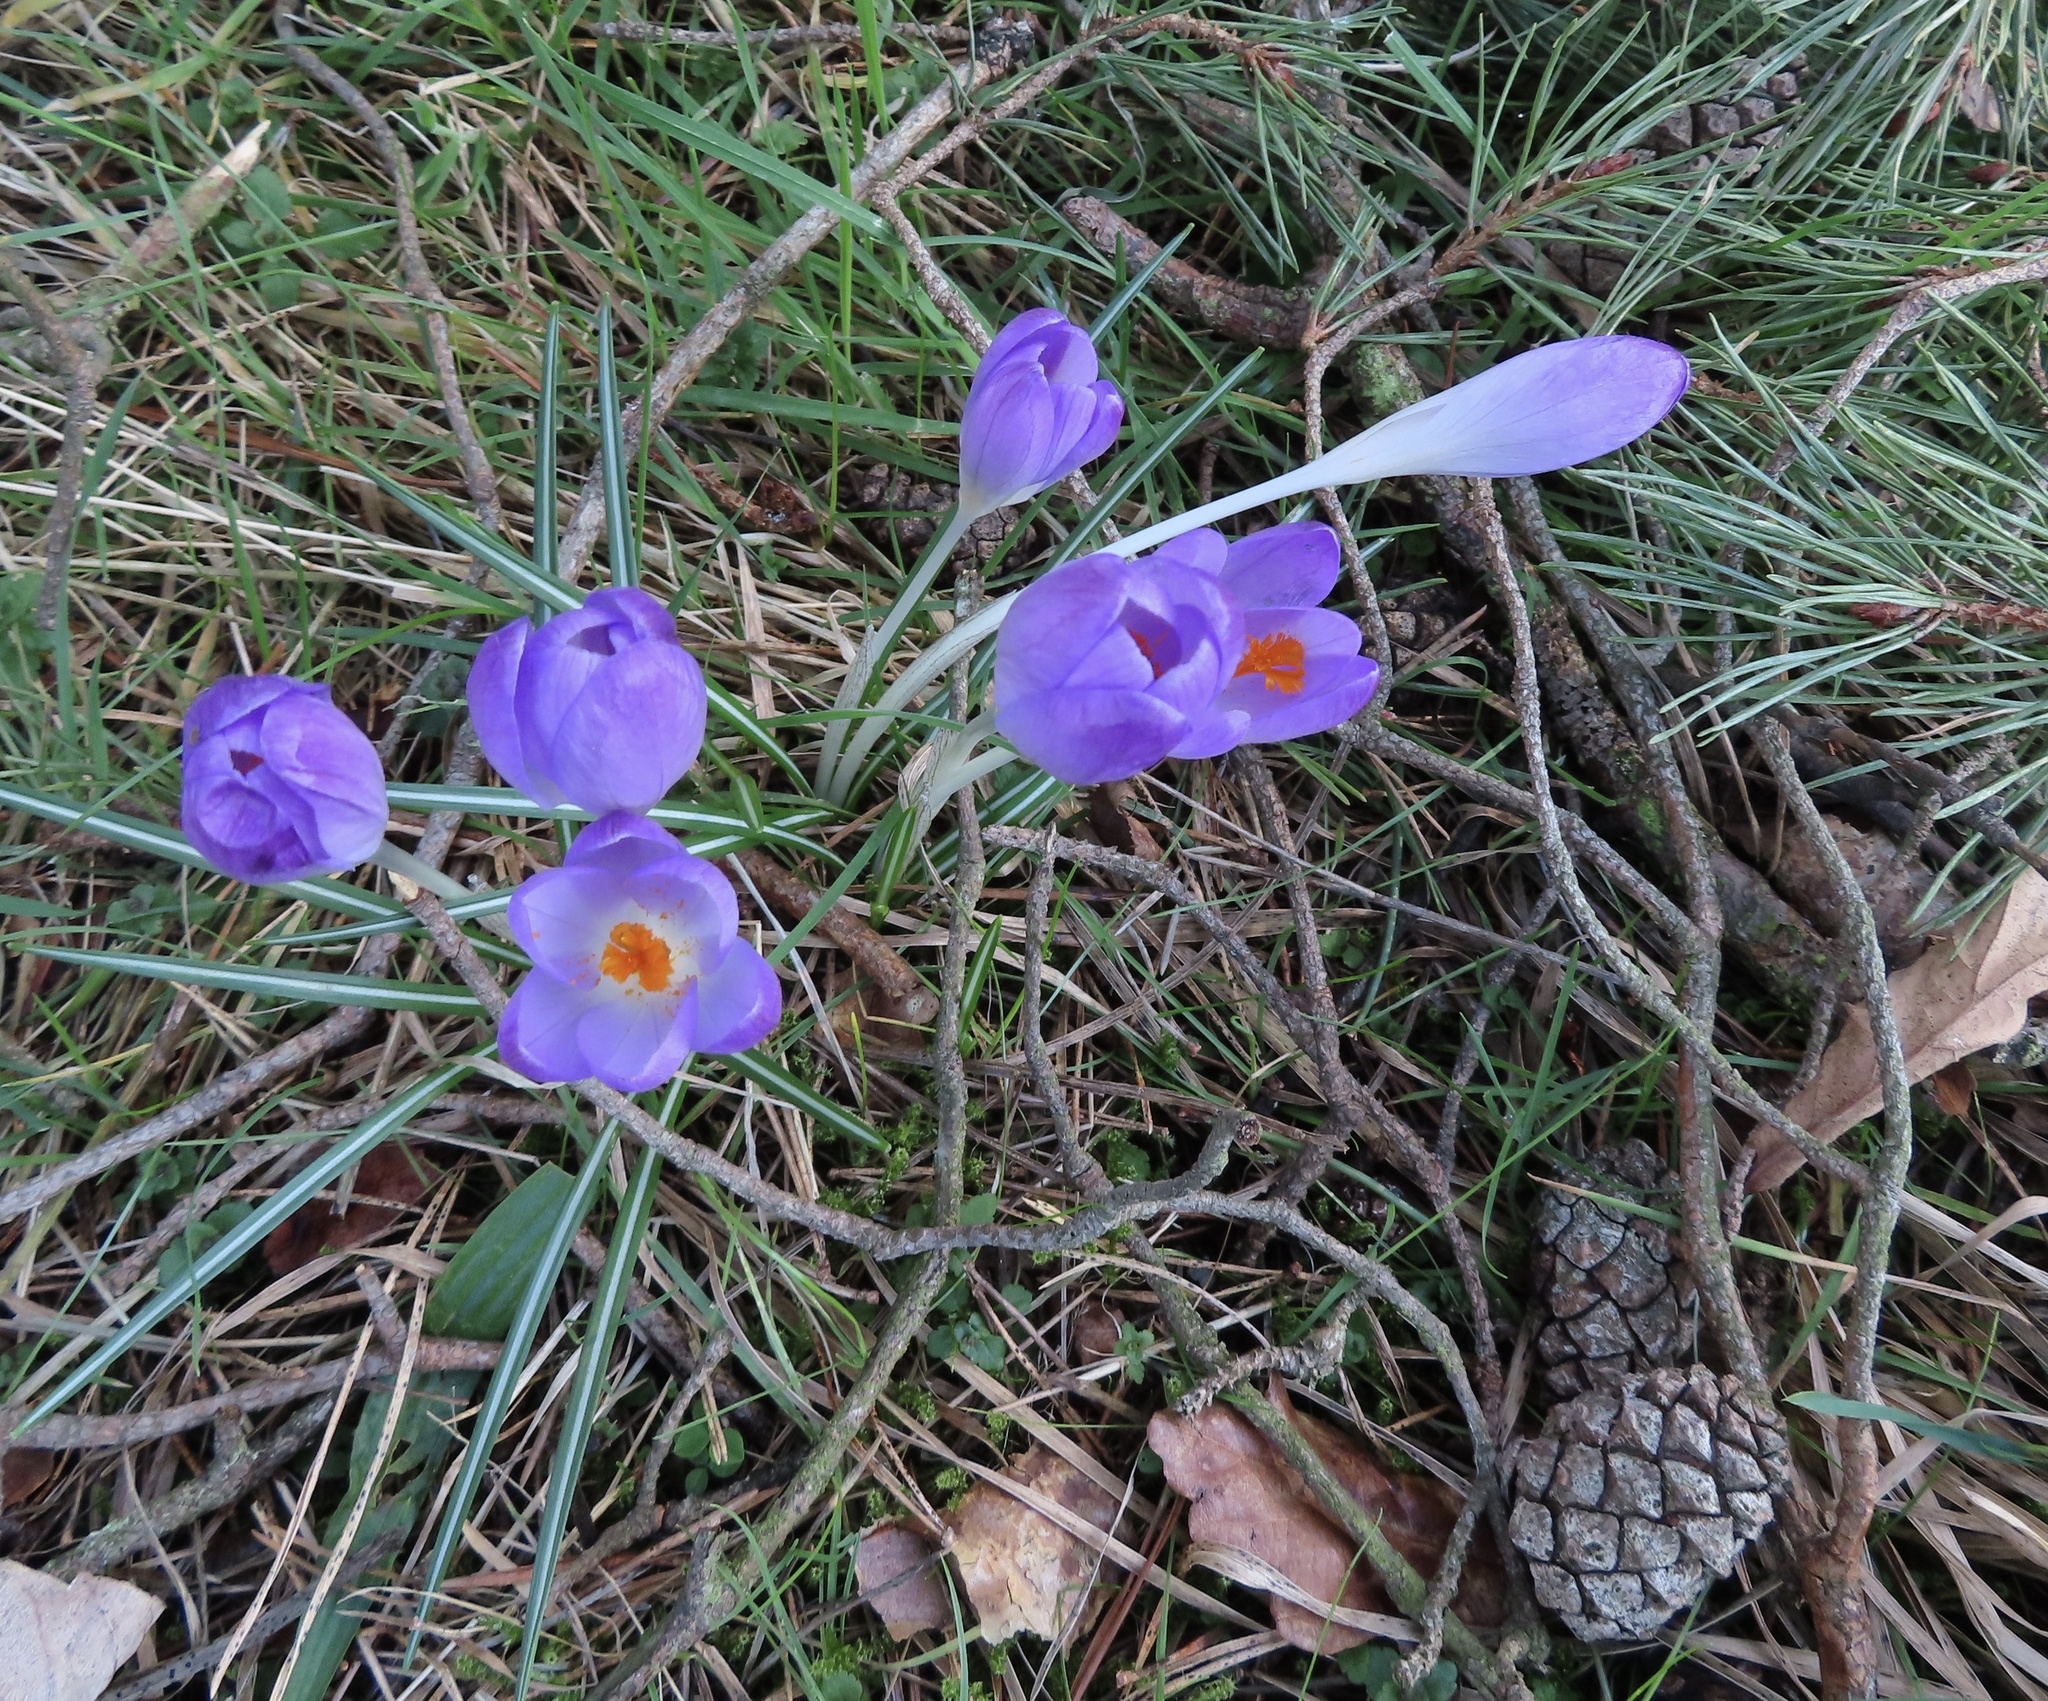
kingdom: Plantae
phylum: Tracheophyta
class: Liliopsida
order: Asparagales
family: Iridaceae
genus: Crocus
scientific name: Crocus tommasinianus
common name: Early crocus
